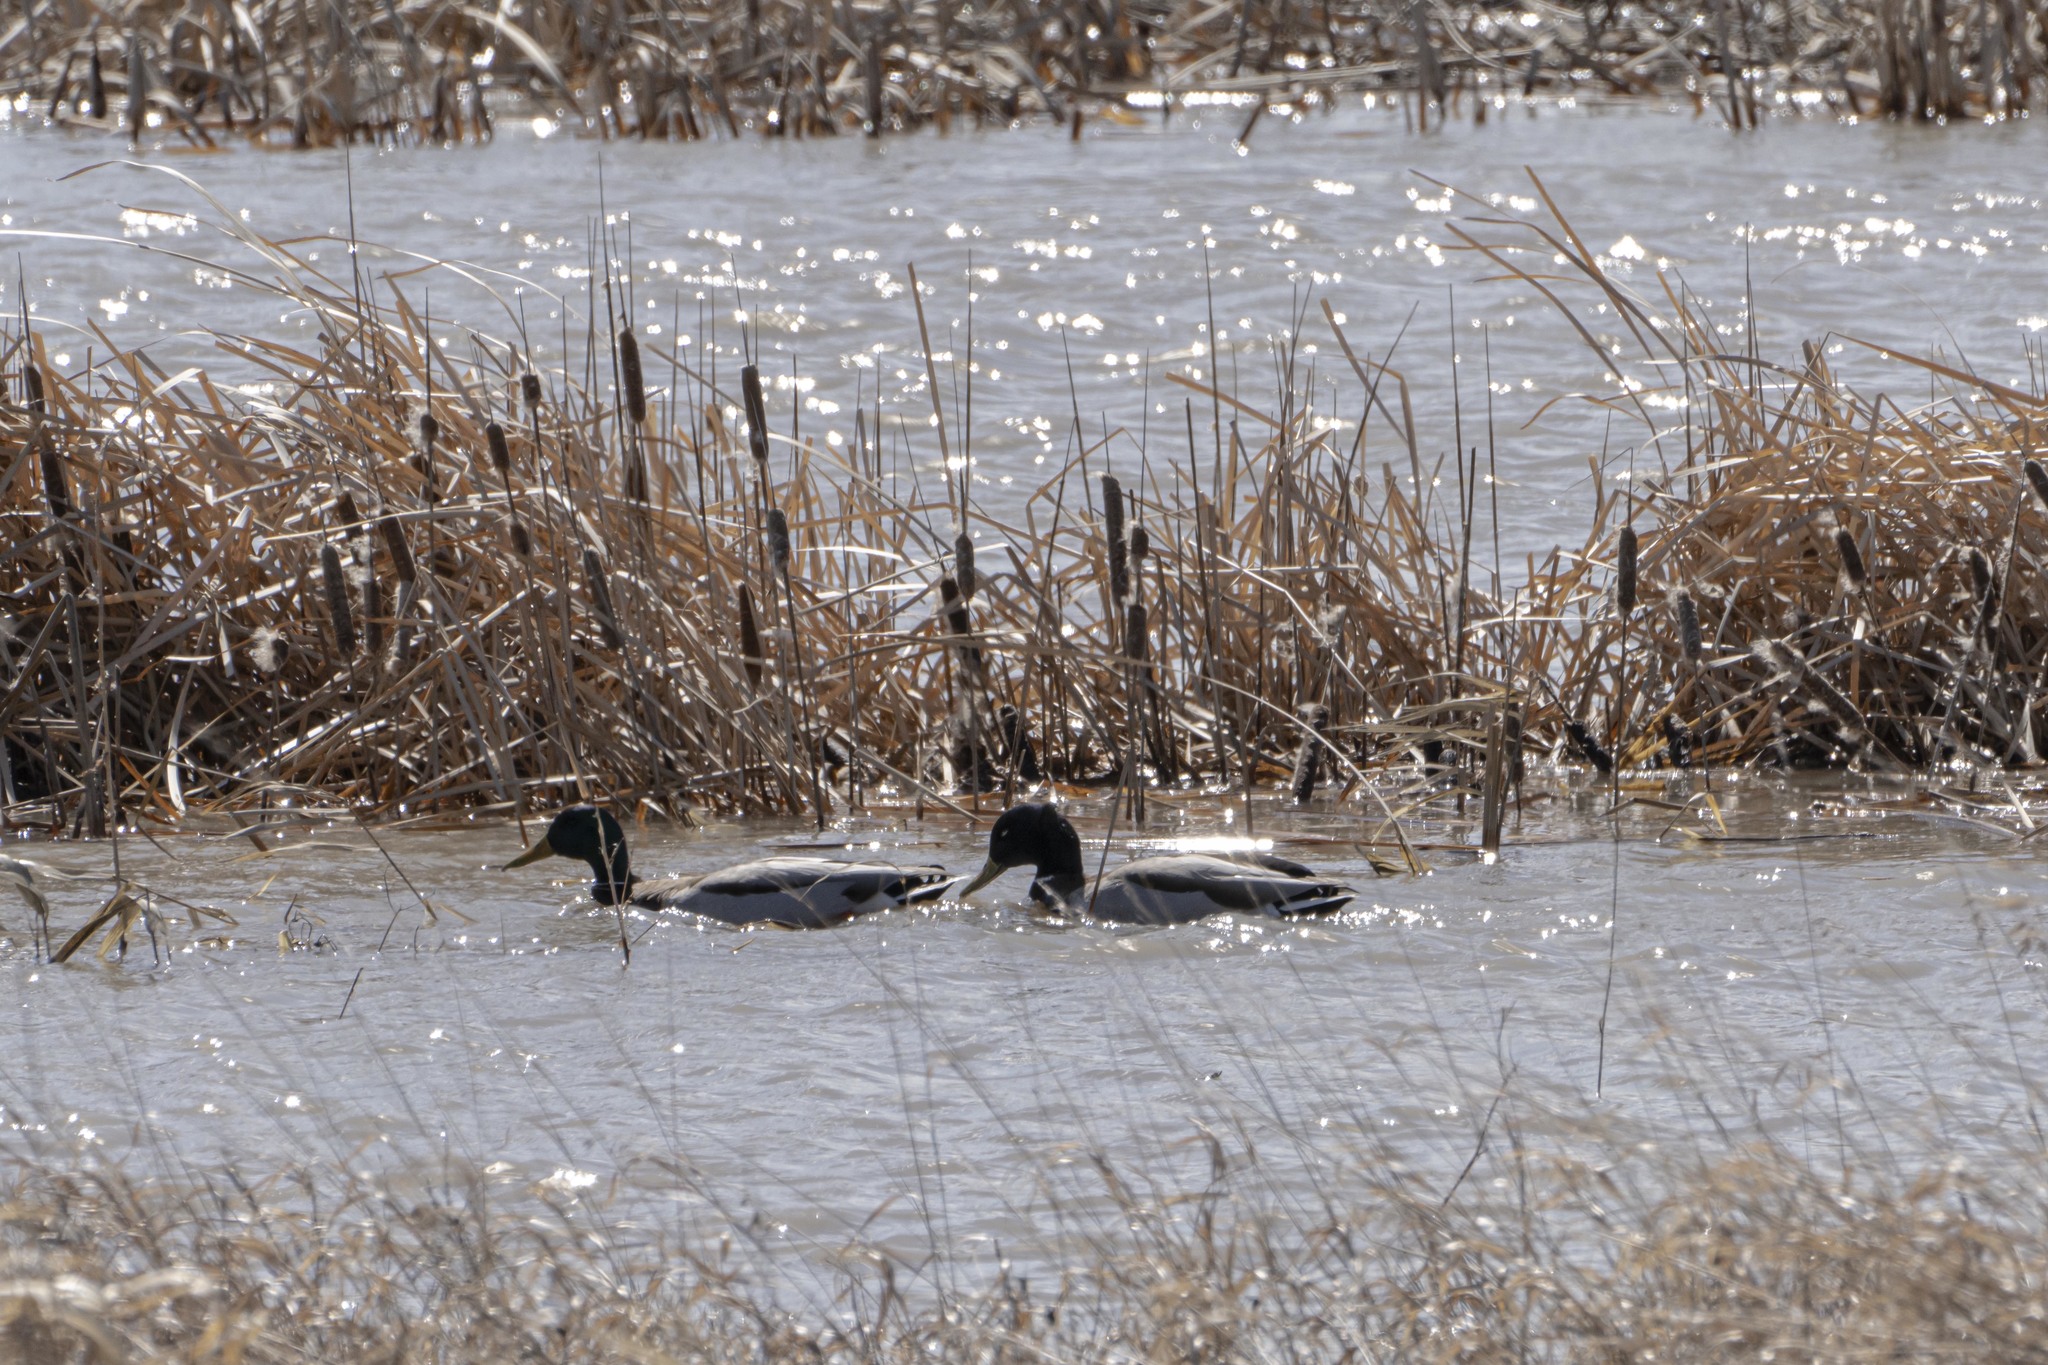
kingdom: Animalia
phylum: Chordata
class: Aves
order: Anseriformes
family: Anatidae
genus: Anas
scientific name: Anas platyrhynchos
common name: Mallard
